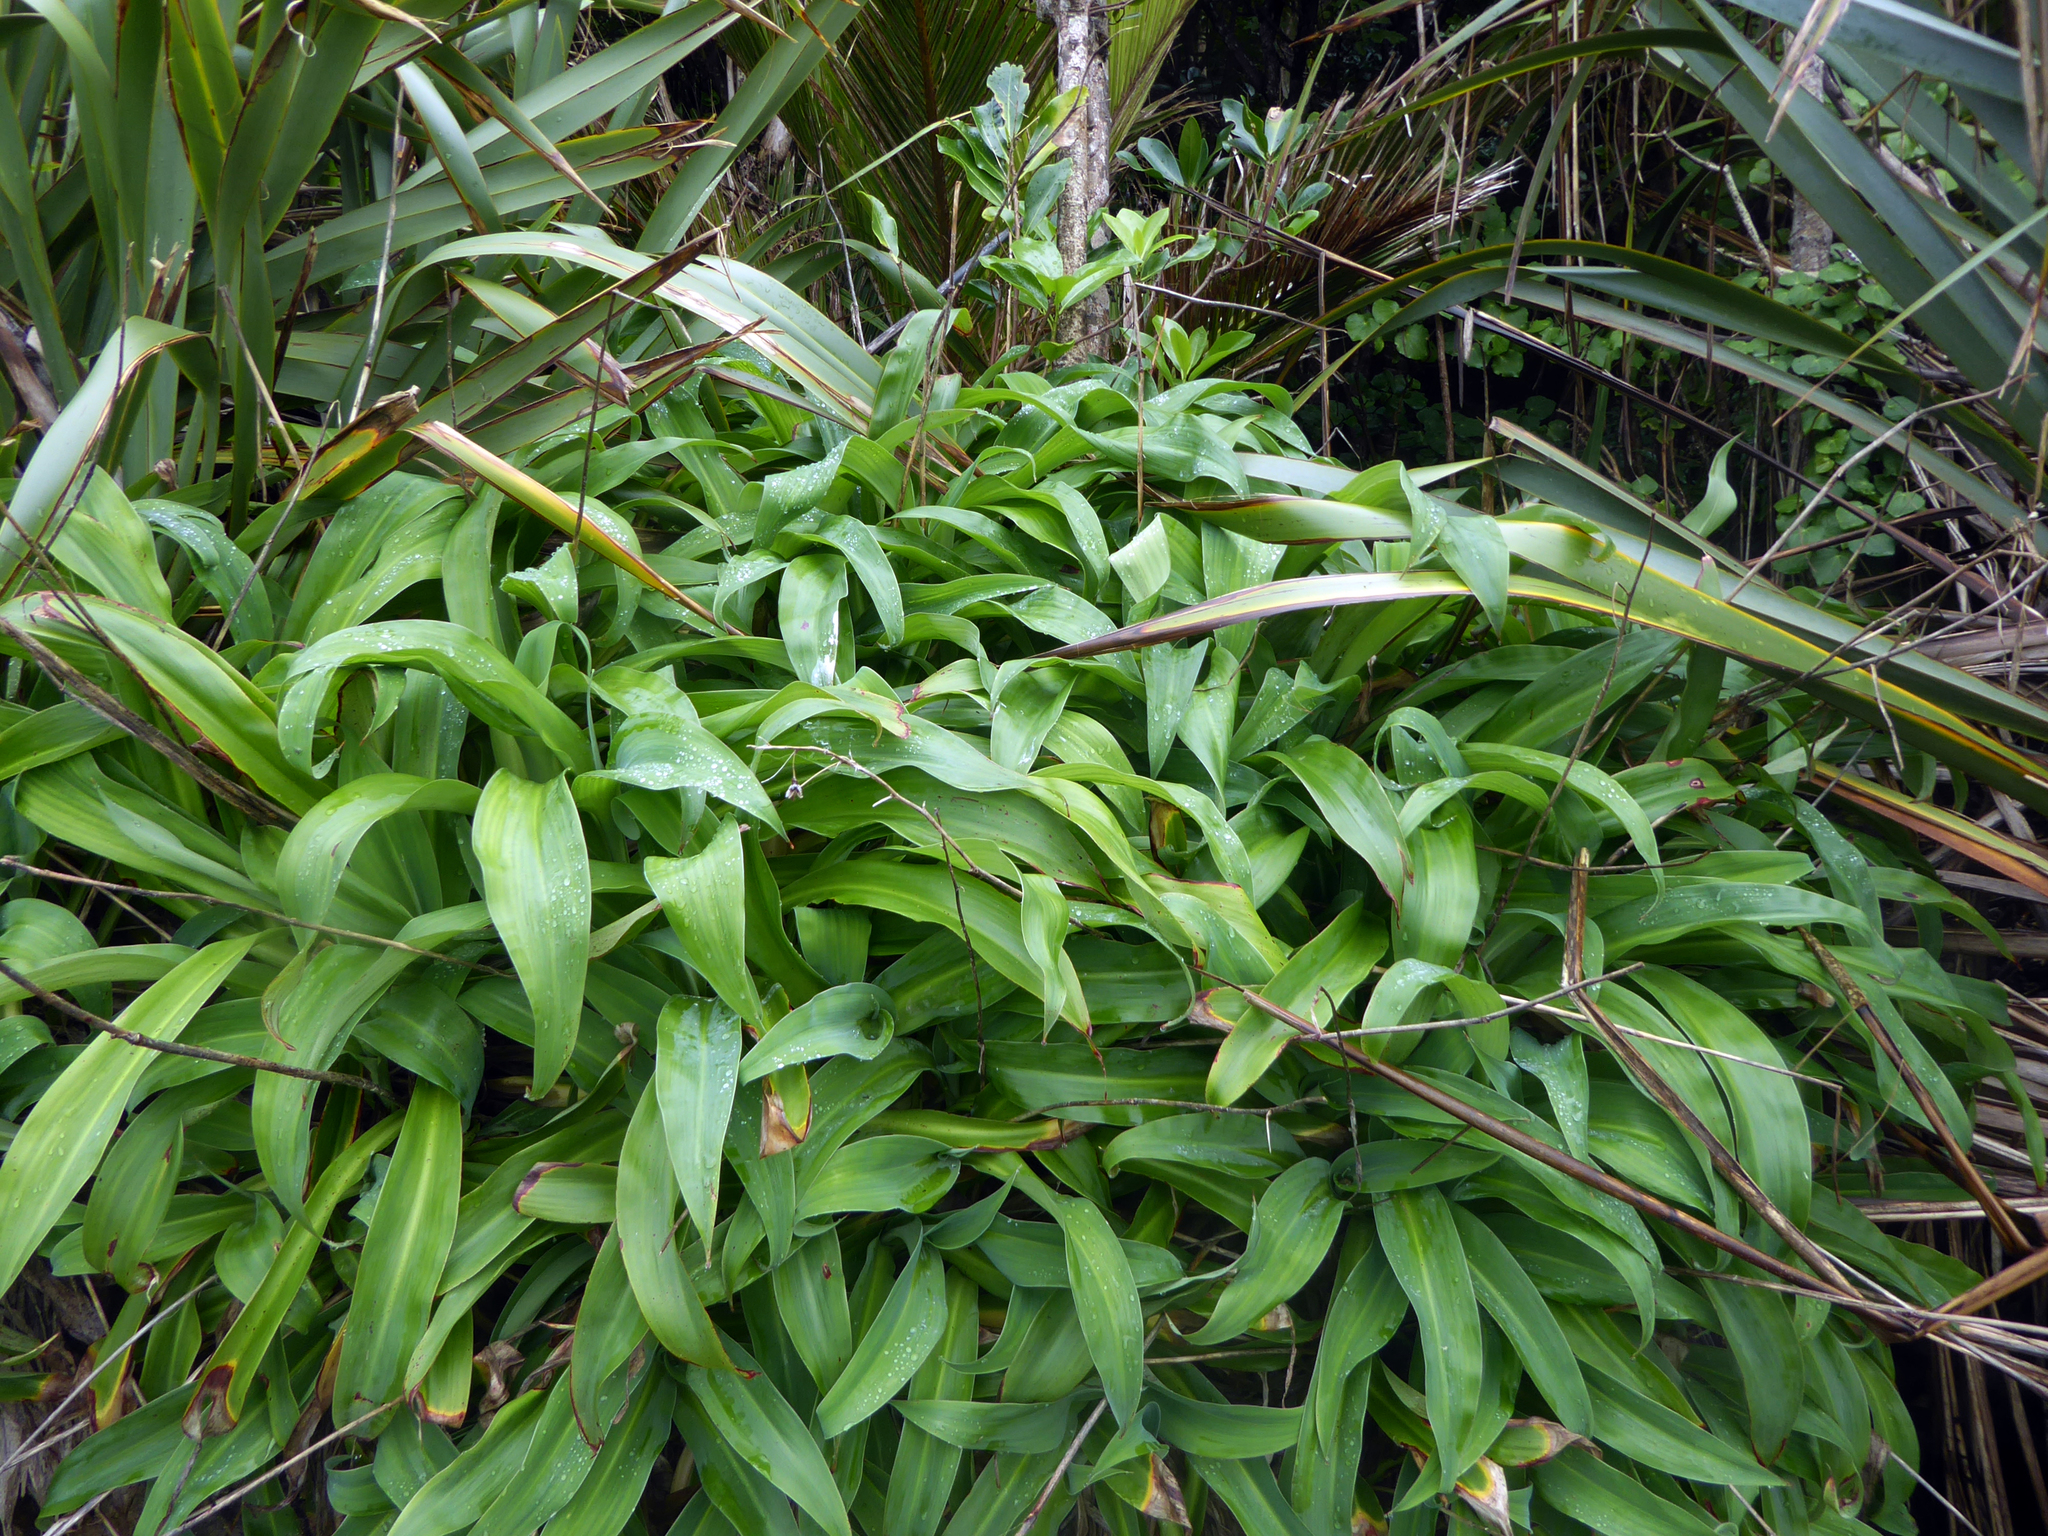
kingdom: Plantae
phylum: Tracheophyta
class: Liliopsida
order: Asparagales
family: Asparagaceae
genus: Arthropodium
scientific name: Arthropodium cirratum
